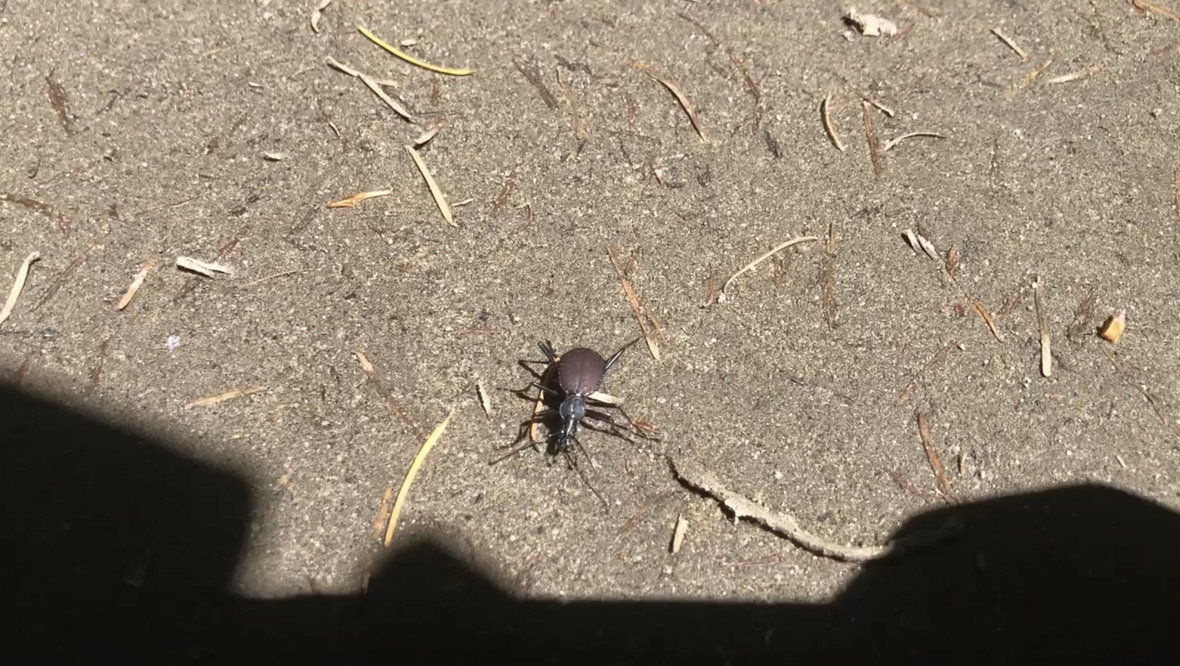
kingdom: Animalia
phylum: Arthropoda
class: Insecta
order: Coleoptera
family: Carabidae
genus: Scaphinotus
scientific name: Scaphinotus angusticollis
